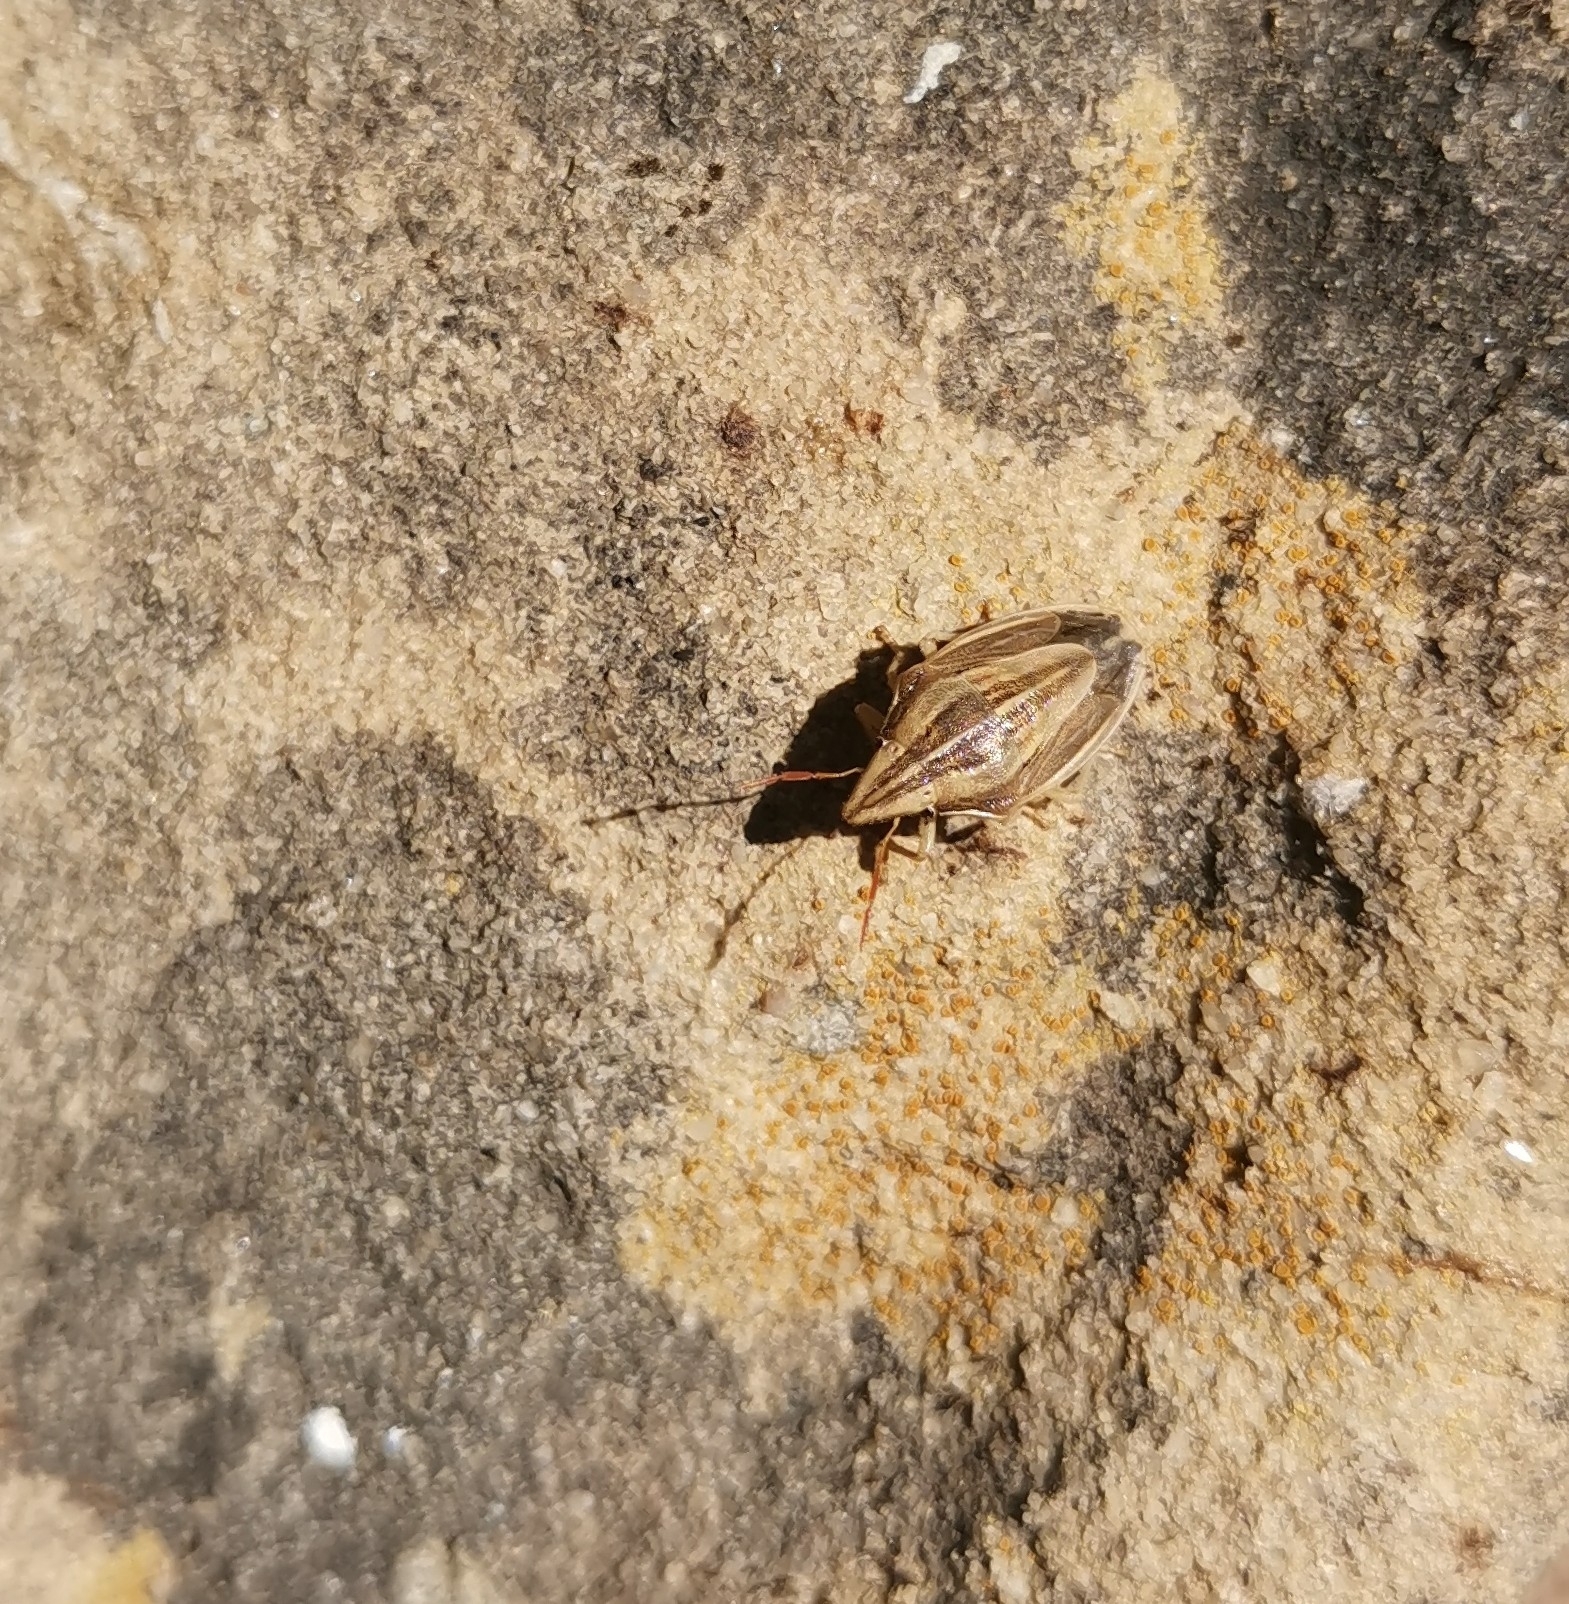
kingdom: Animalia
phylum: Arthropoda
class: Insecta
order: Hemiptera
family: Pentatomidae
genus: Aelia
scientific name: Aelia acuminata
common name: Bishop's mitre
